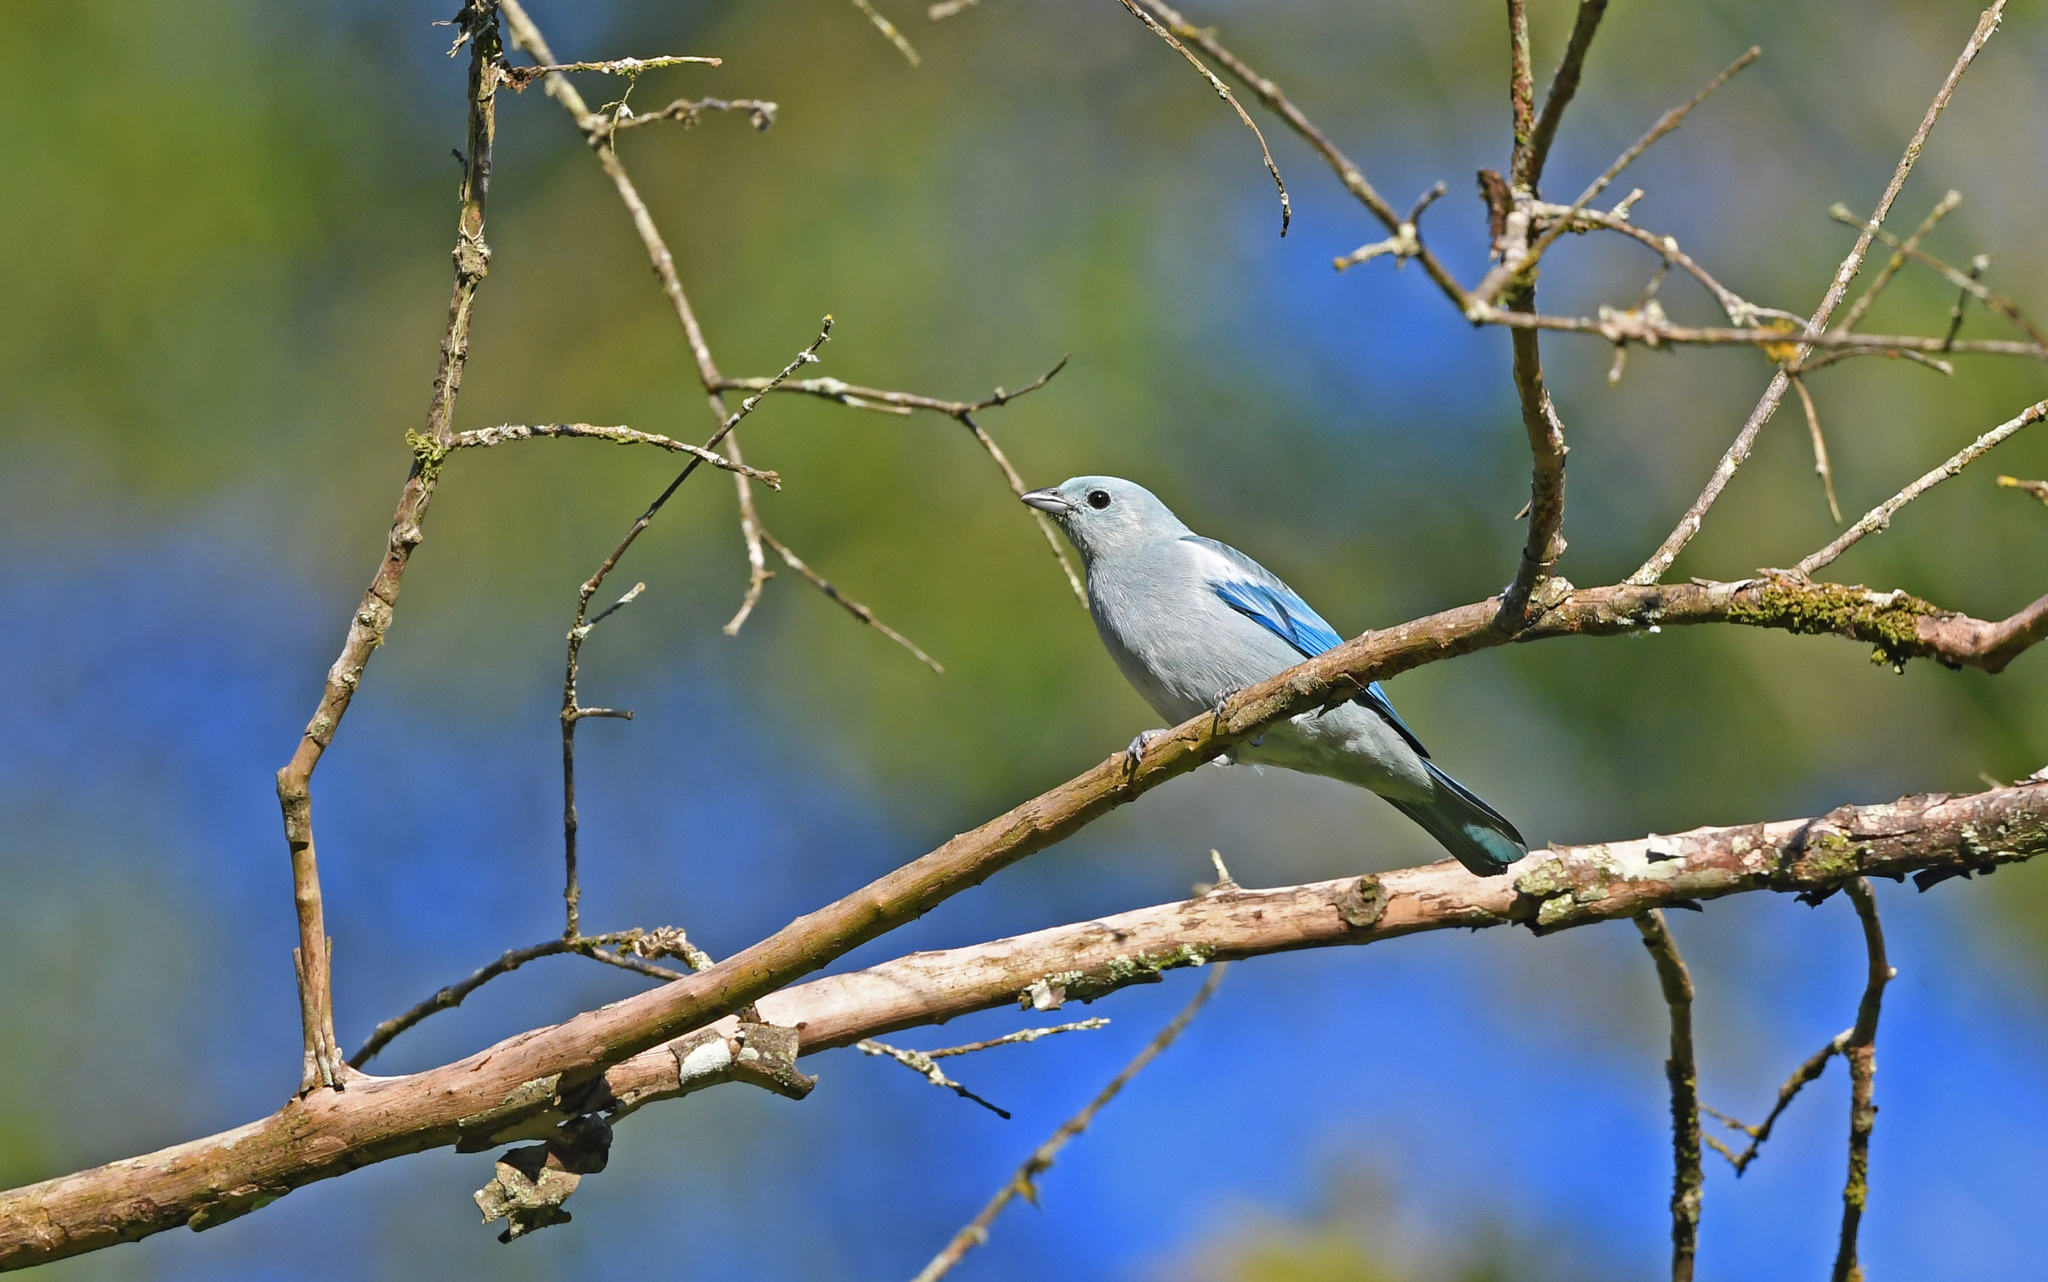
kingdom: Animalia
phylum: Chordata
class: Aves
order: Passeriformes
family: Thraupidae
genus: Thraupis
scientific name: Thraupis episcopus
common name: Blue-grey tanager
